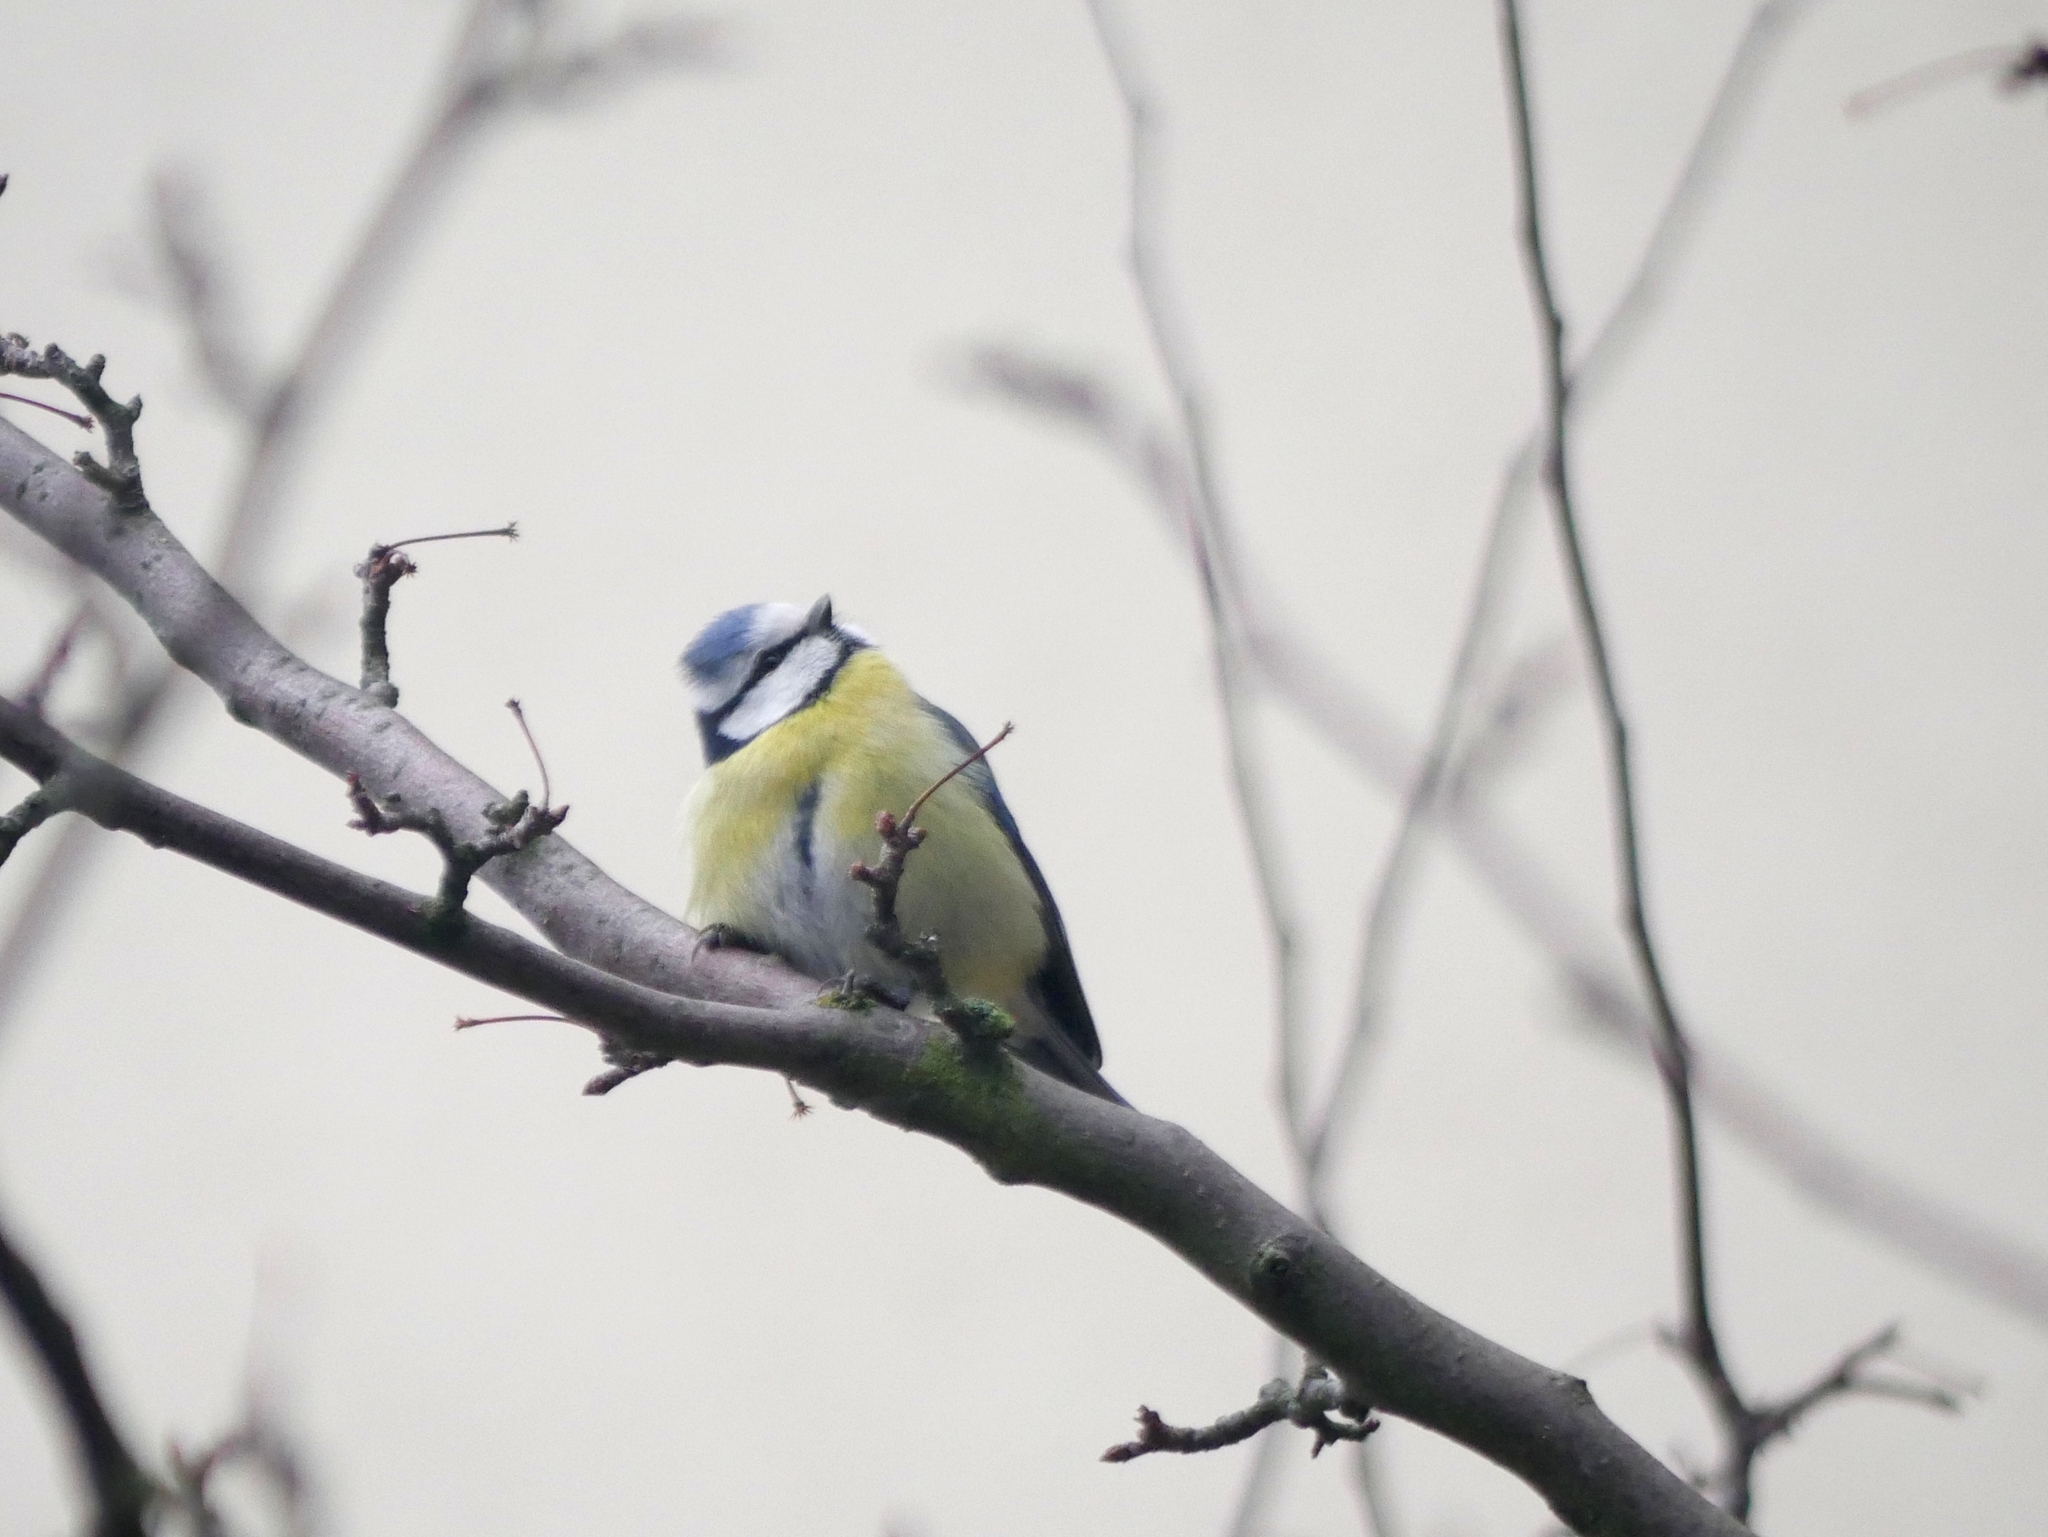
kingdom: Animalia
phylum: Chordata
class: Aves
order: Passeriformes
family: Paridae
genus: Cyanistes
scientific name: Cyanistes caeruleus
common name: Eurasian blue tit
